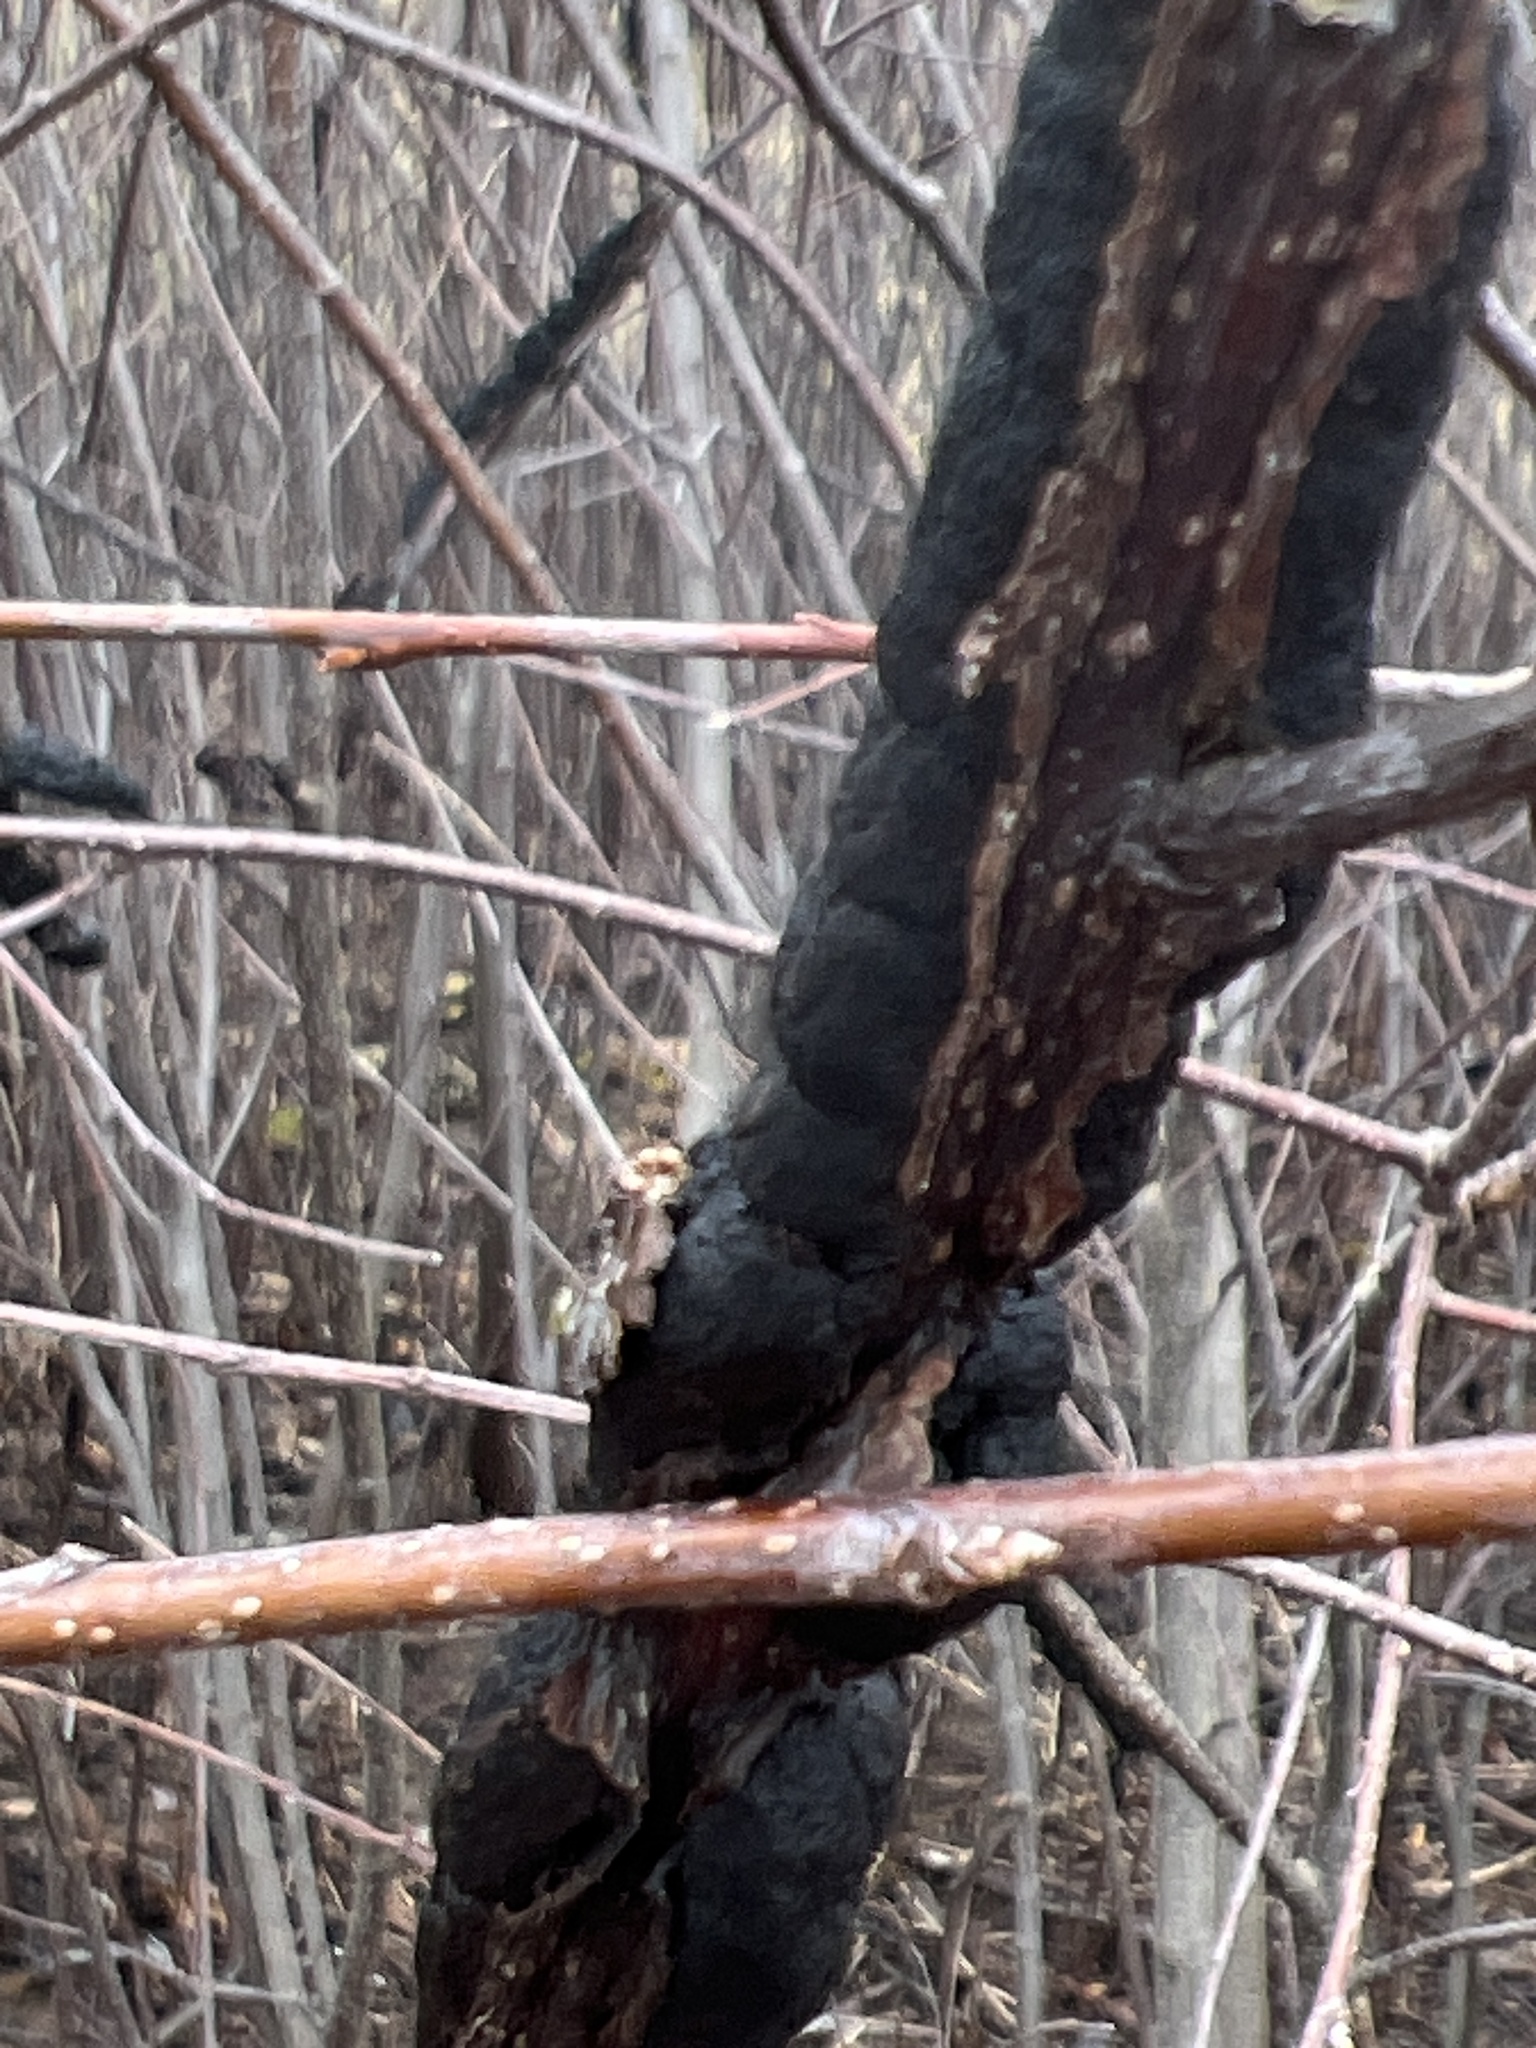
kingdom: Fungi
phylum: Ascomycota
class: Dothideomycetes
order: Venturiales
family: Venturiaceae
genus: Apiosporina
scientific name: Apiosporina morbosa
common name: Black knot
